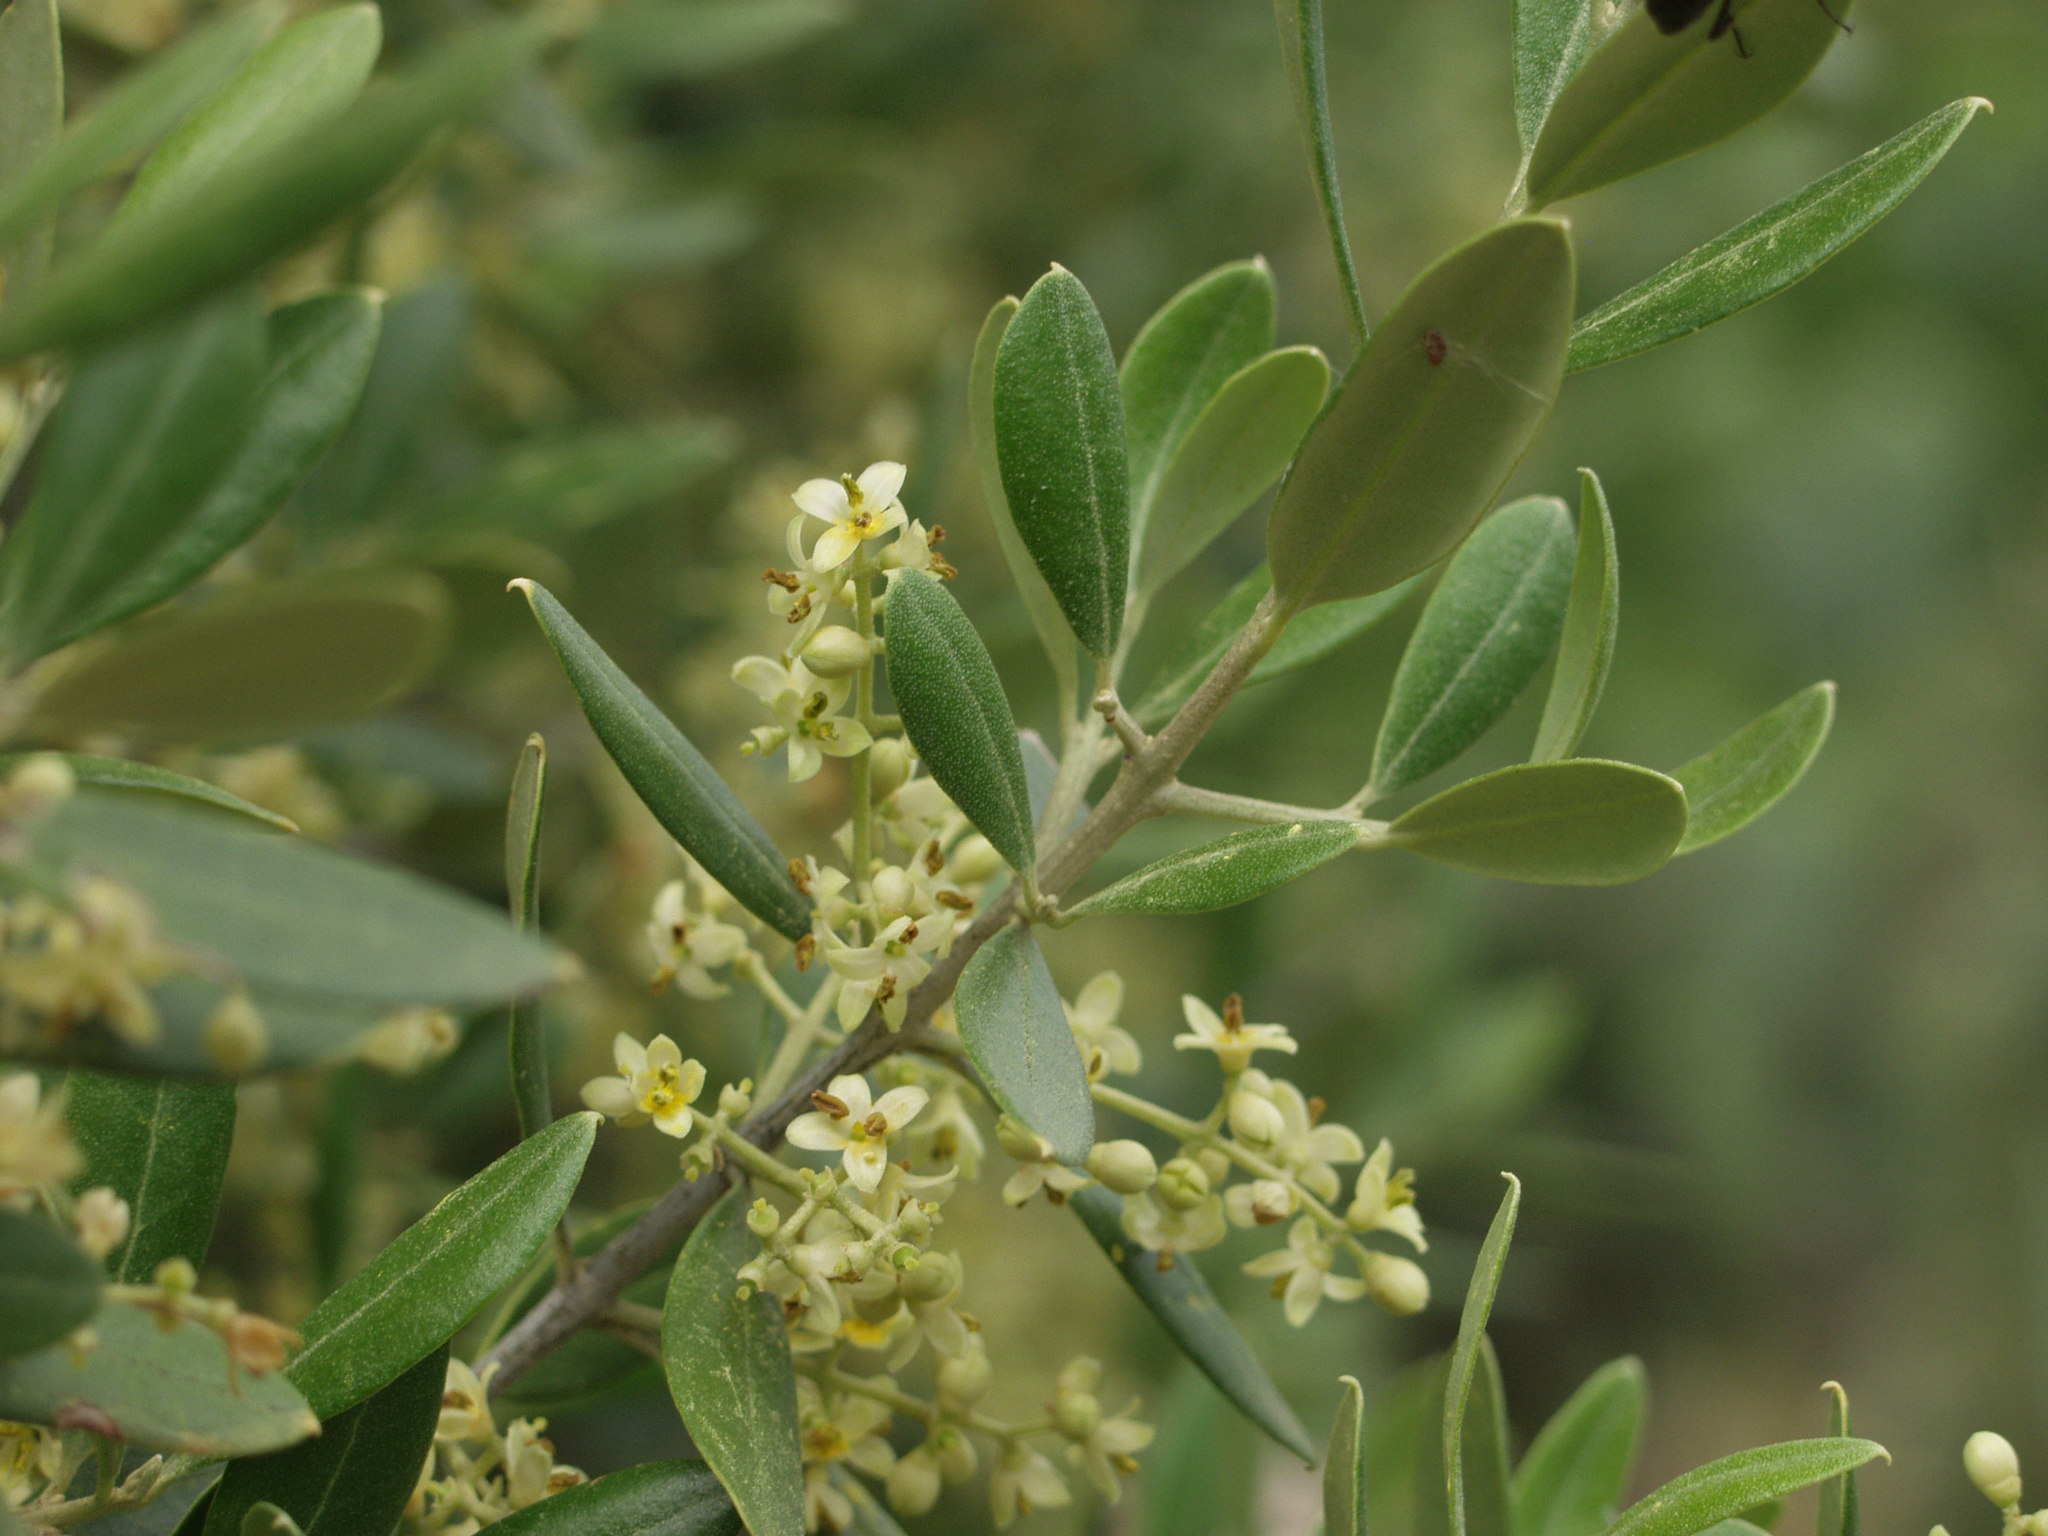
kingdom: Plantae
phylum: Tracheophyta
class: Magnoliopsida
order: Lamiales
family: Oleaceae
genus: Olea
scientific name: Olea europaea
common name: Olive
